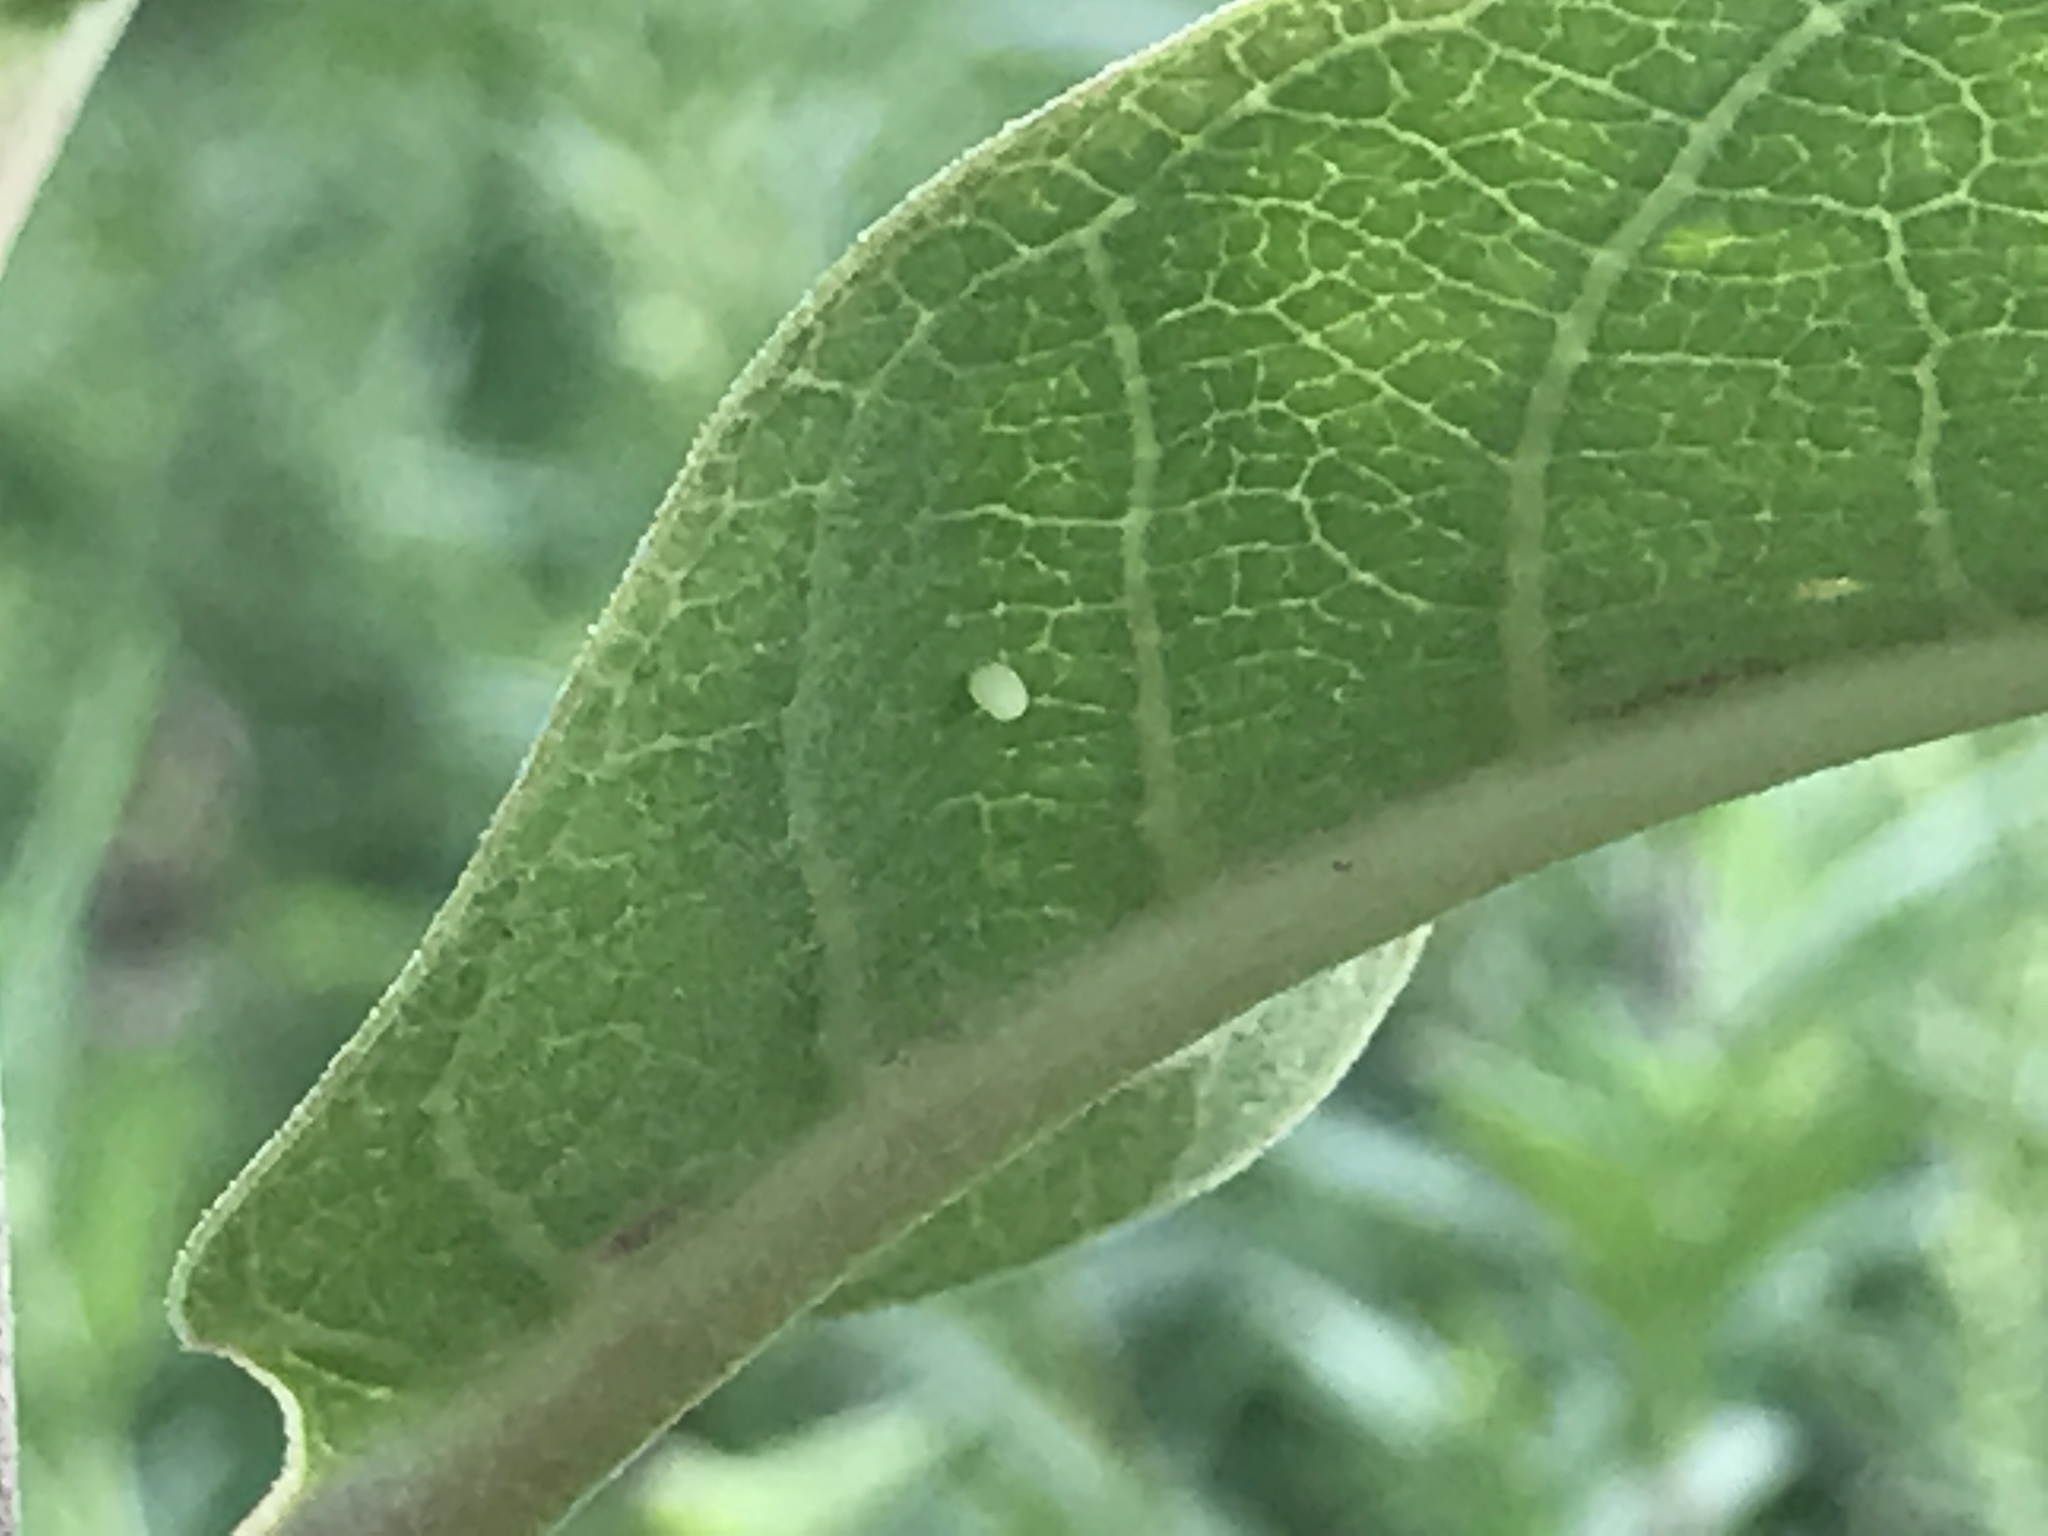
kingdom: Animalia
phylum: Arthropoda
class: Insecta
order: Lepidoptera
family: Nymphalidae
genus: Danaus
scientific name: Danaus plexippus
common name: Monarch
